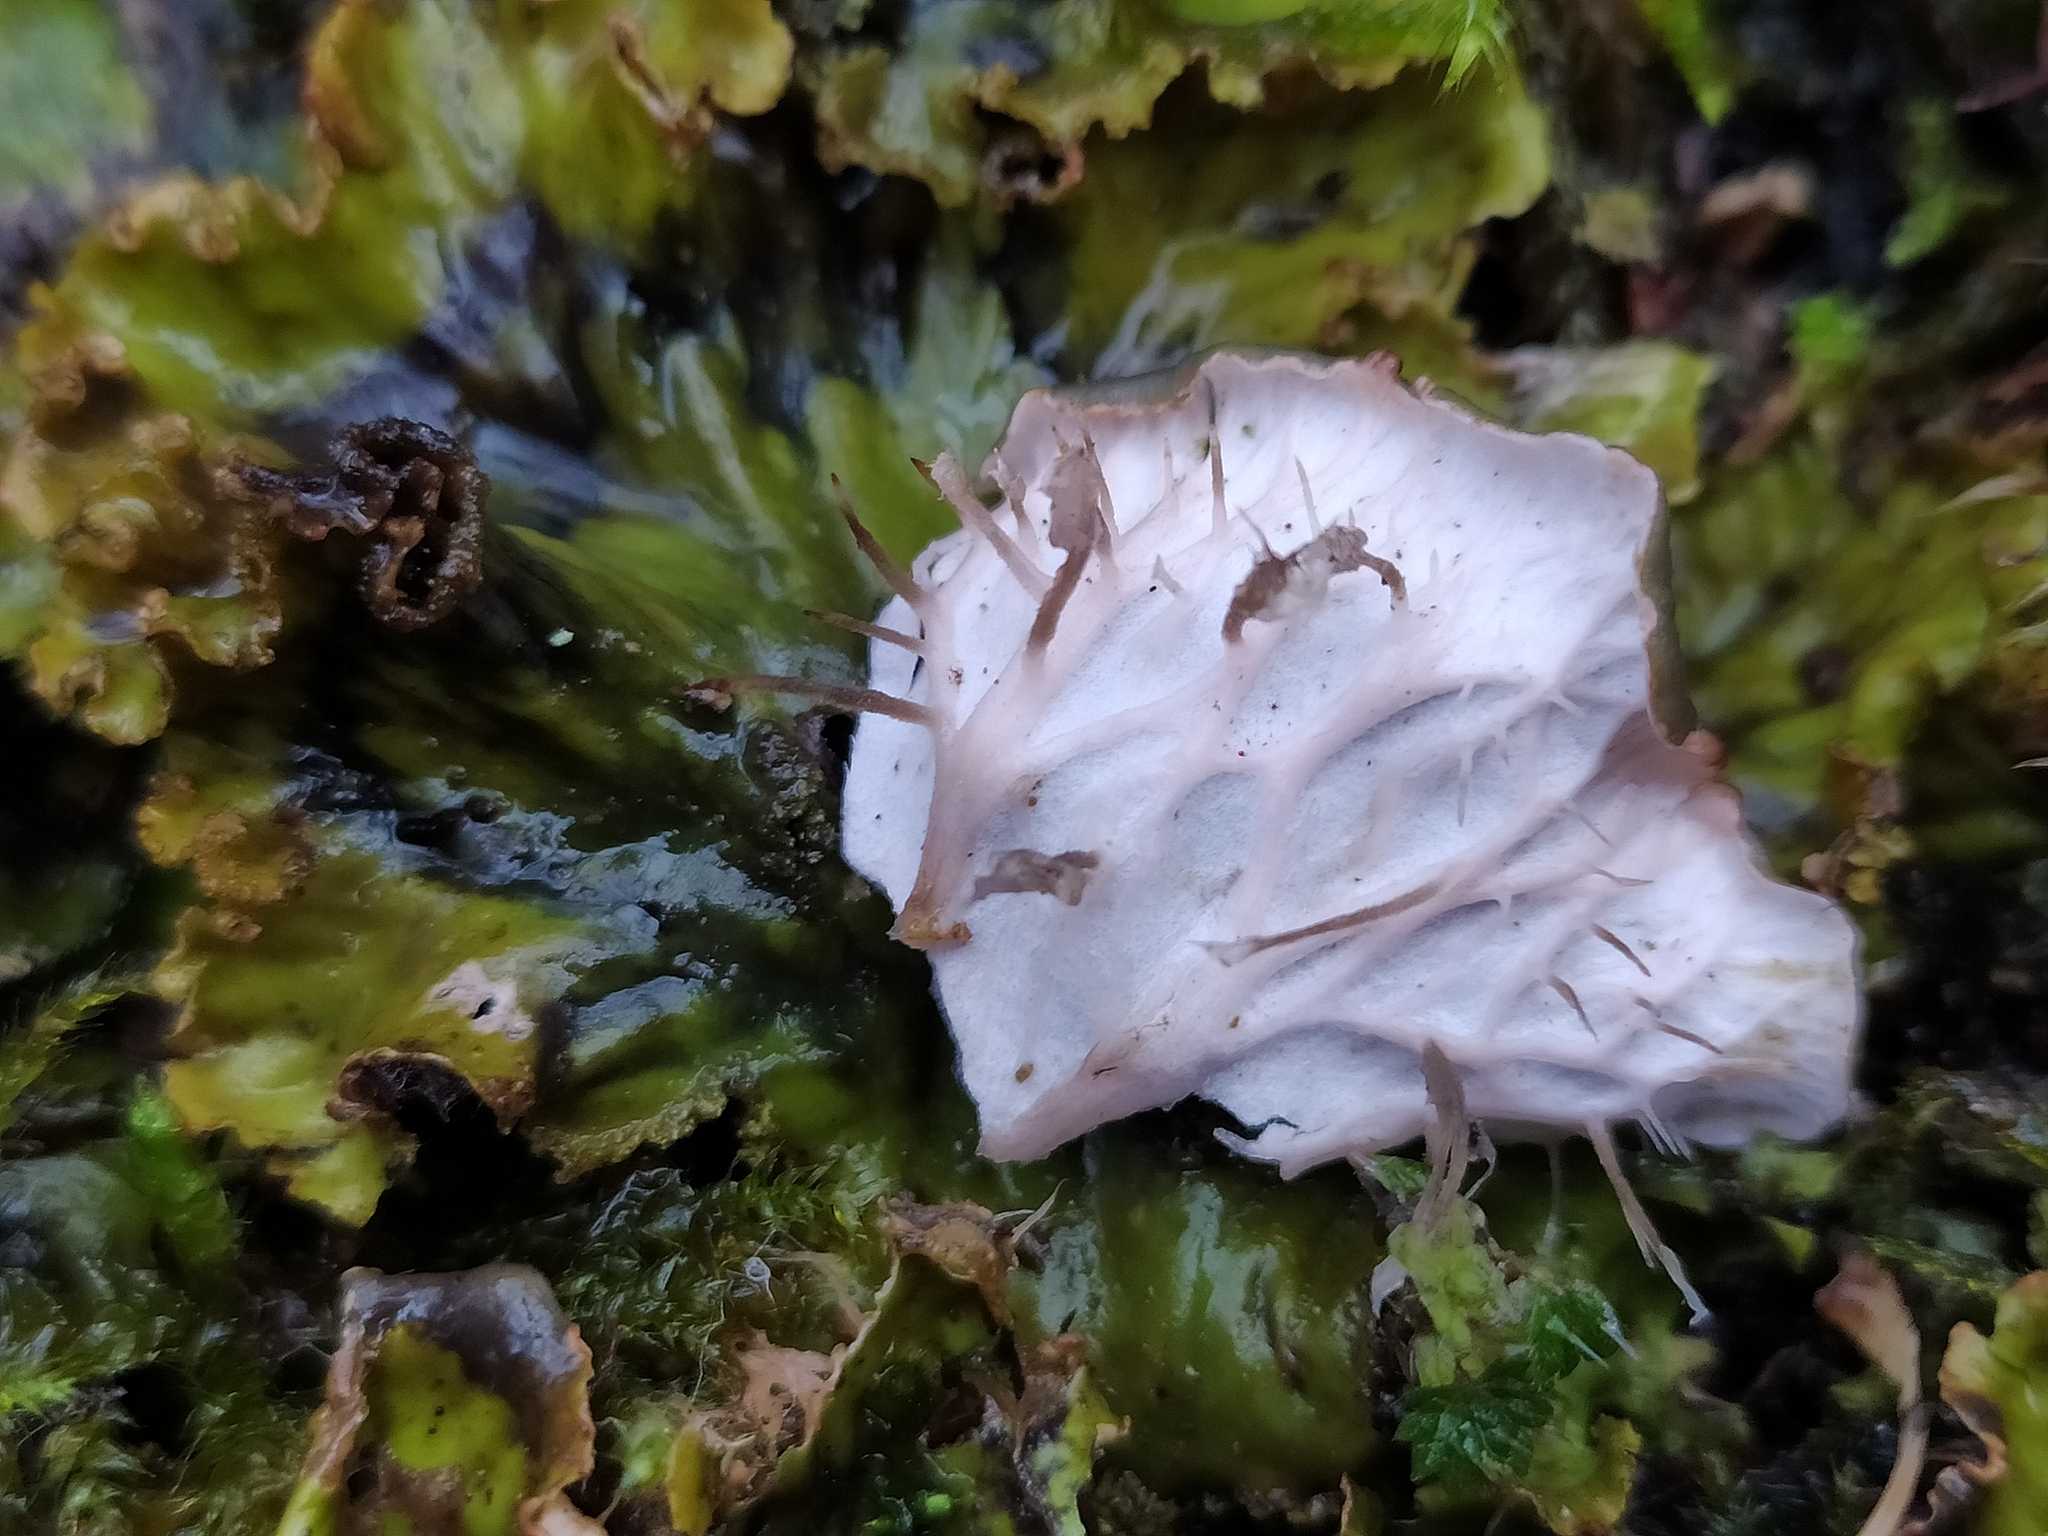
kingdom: Fungi
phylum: Ascomycota
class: Lecanoromycetes
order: Peltigerales
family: Peltigeraceae
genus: Peltigera
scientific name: Peltigera praetextata
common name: Scaly dog-lichen
